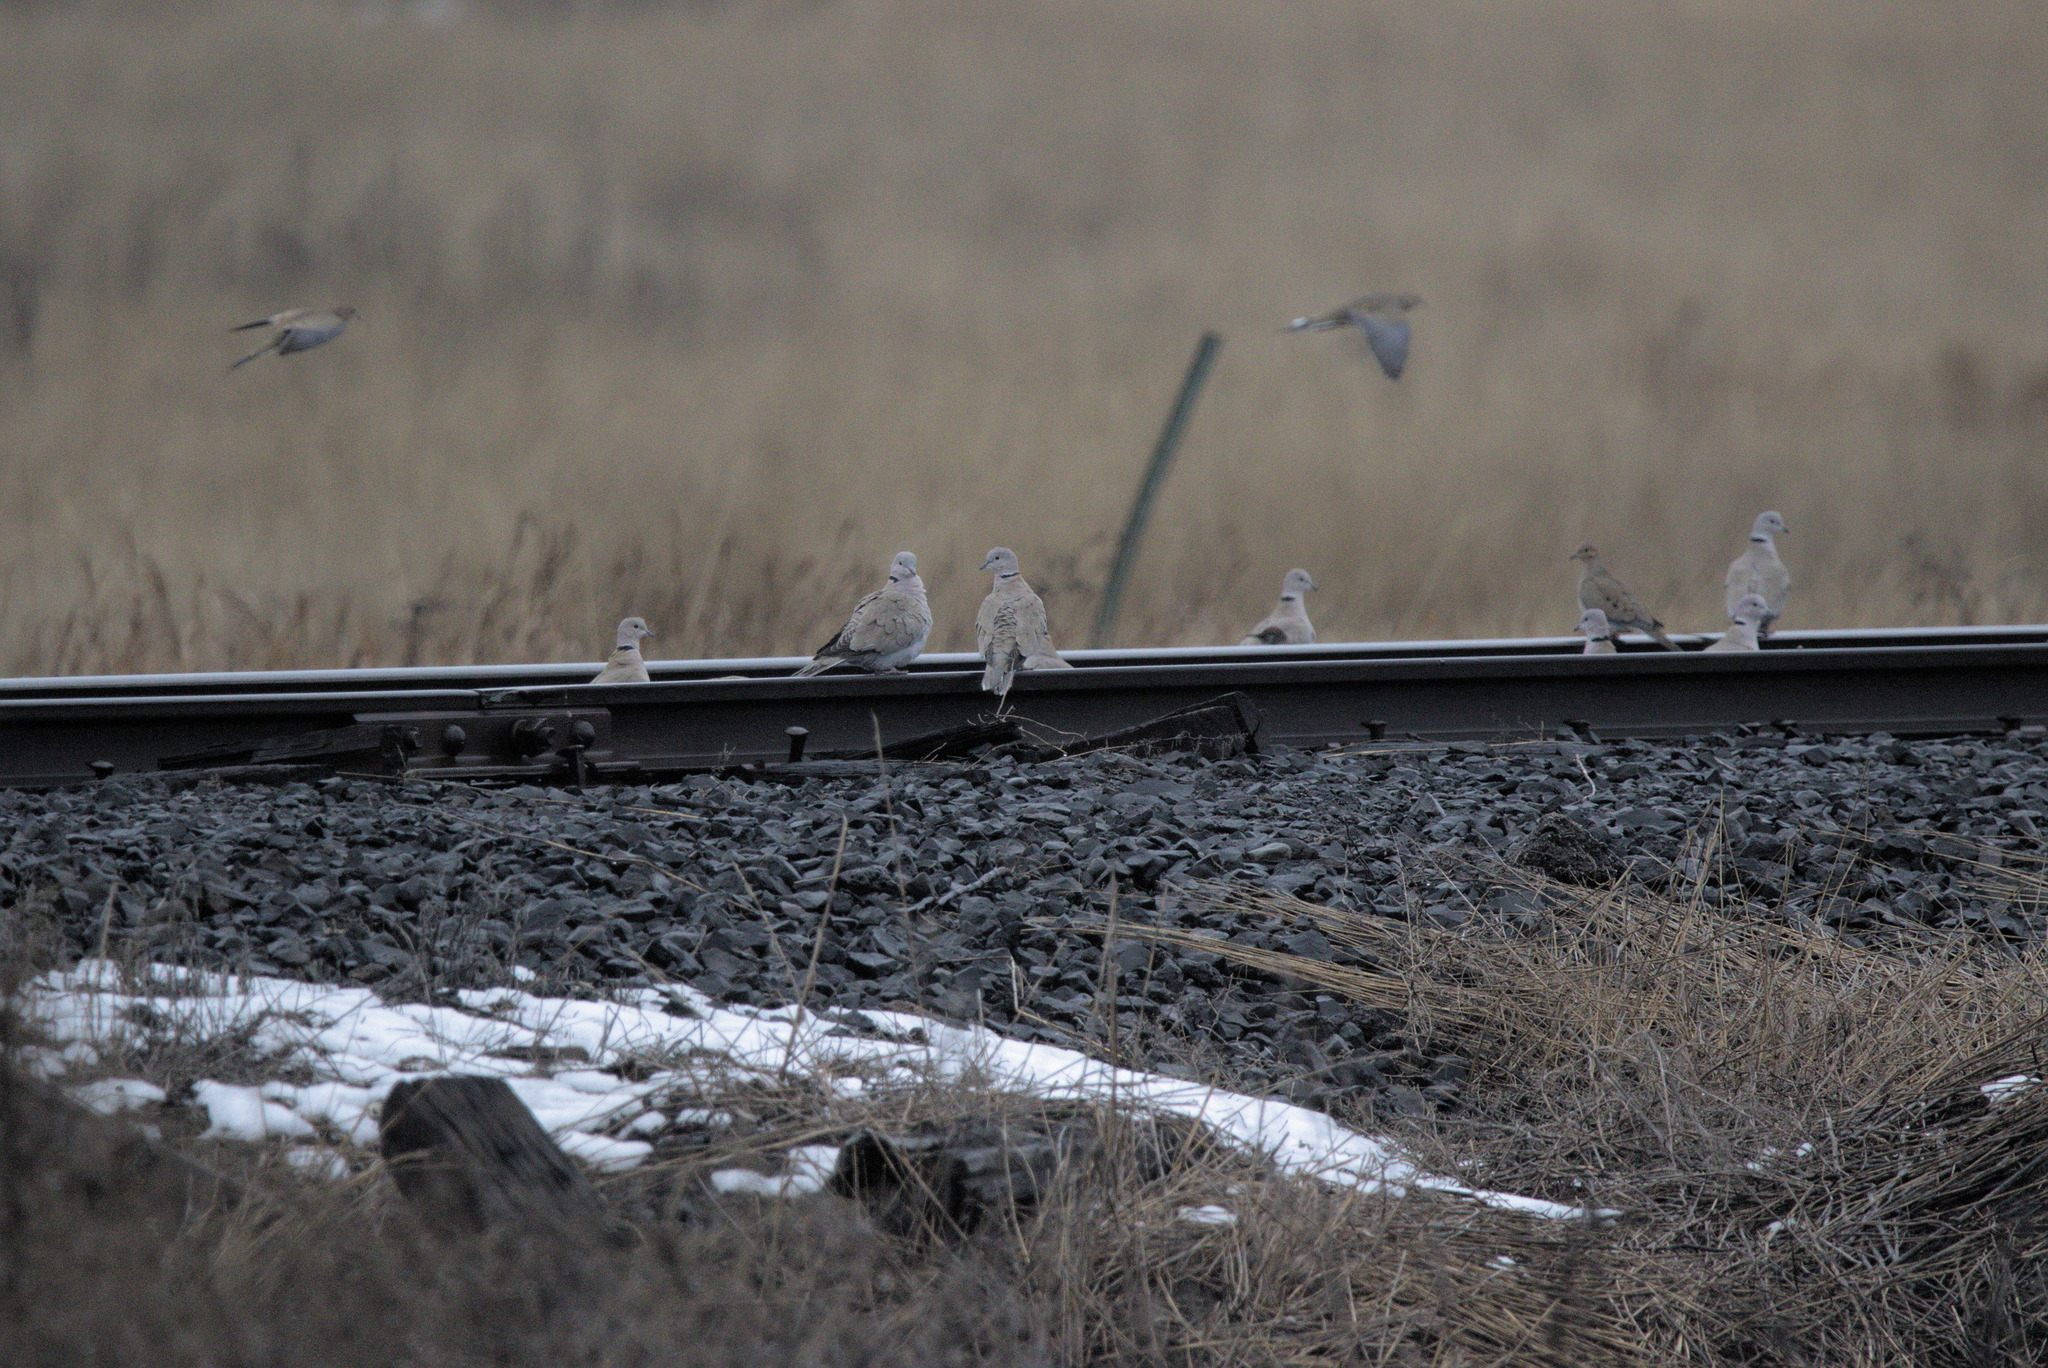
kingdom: Animalia
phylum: Chordata
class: Aves
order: Columbiformes
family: Columbidae
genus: Streptopelia
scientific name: Streptopelia decaocto
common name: Eurasian collared dove
